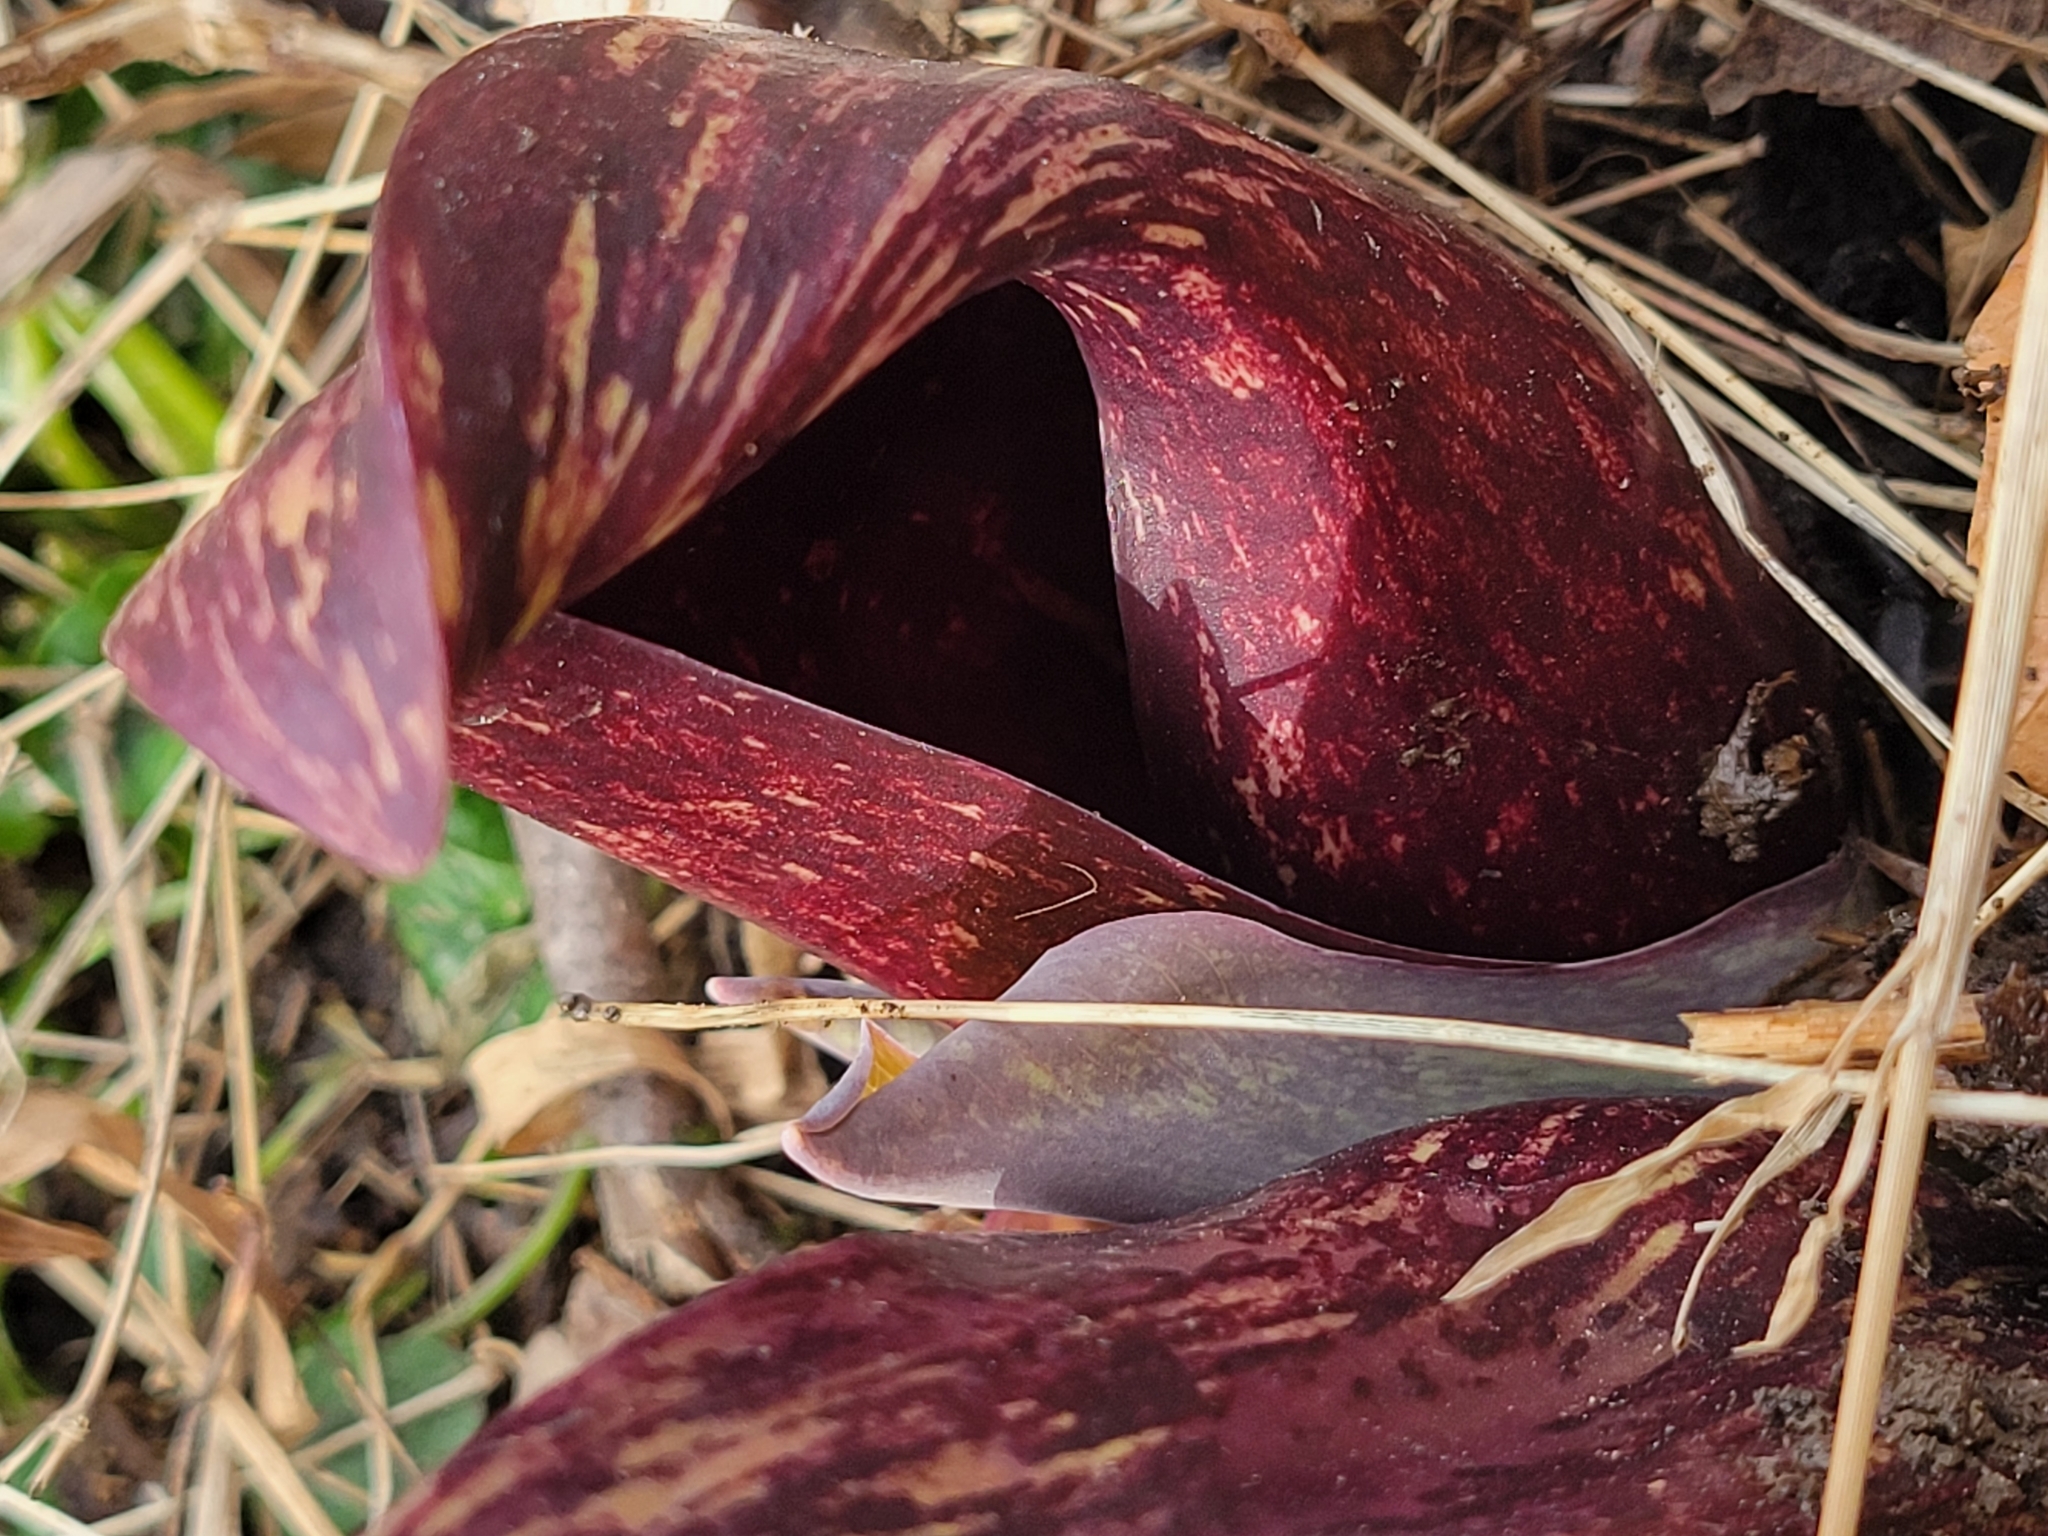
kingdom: Plantae
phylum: Tracheophyta
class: Liliopsida
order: Alismatales
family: Araceae
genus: Symplocarpus
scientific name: Symplocarpus foetidus
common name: Eastern skunk cabbage
